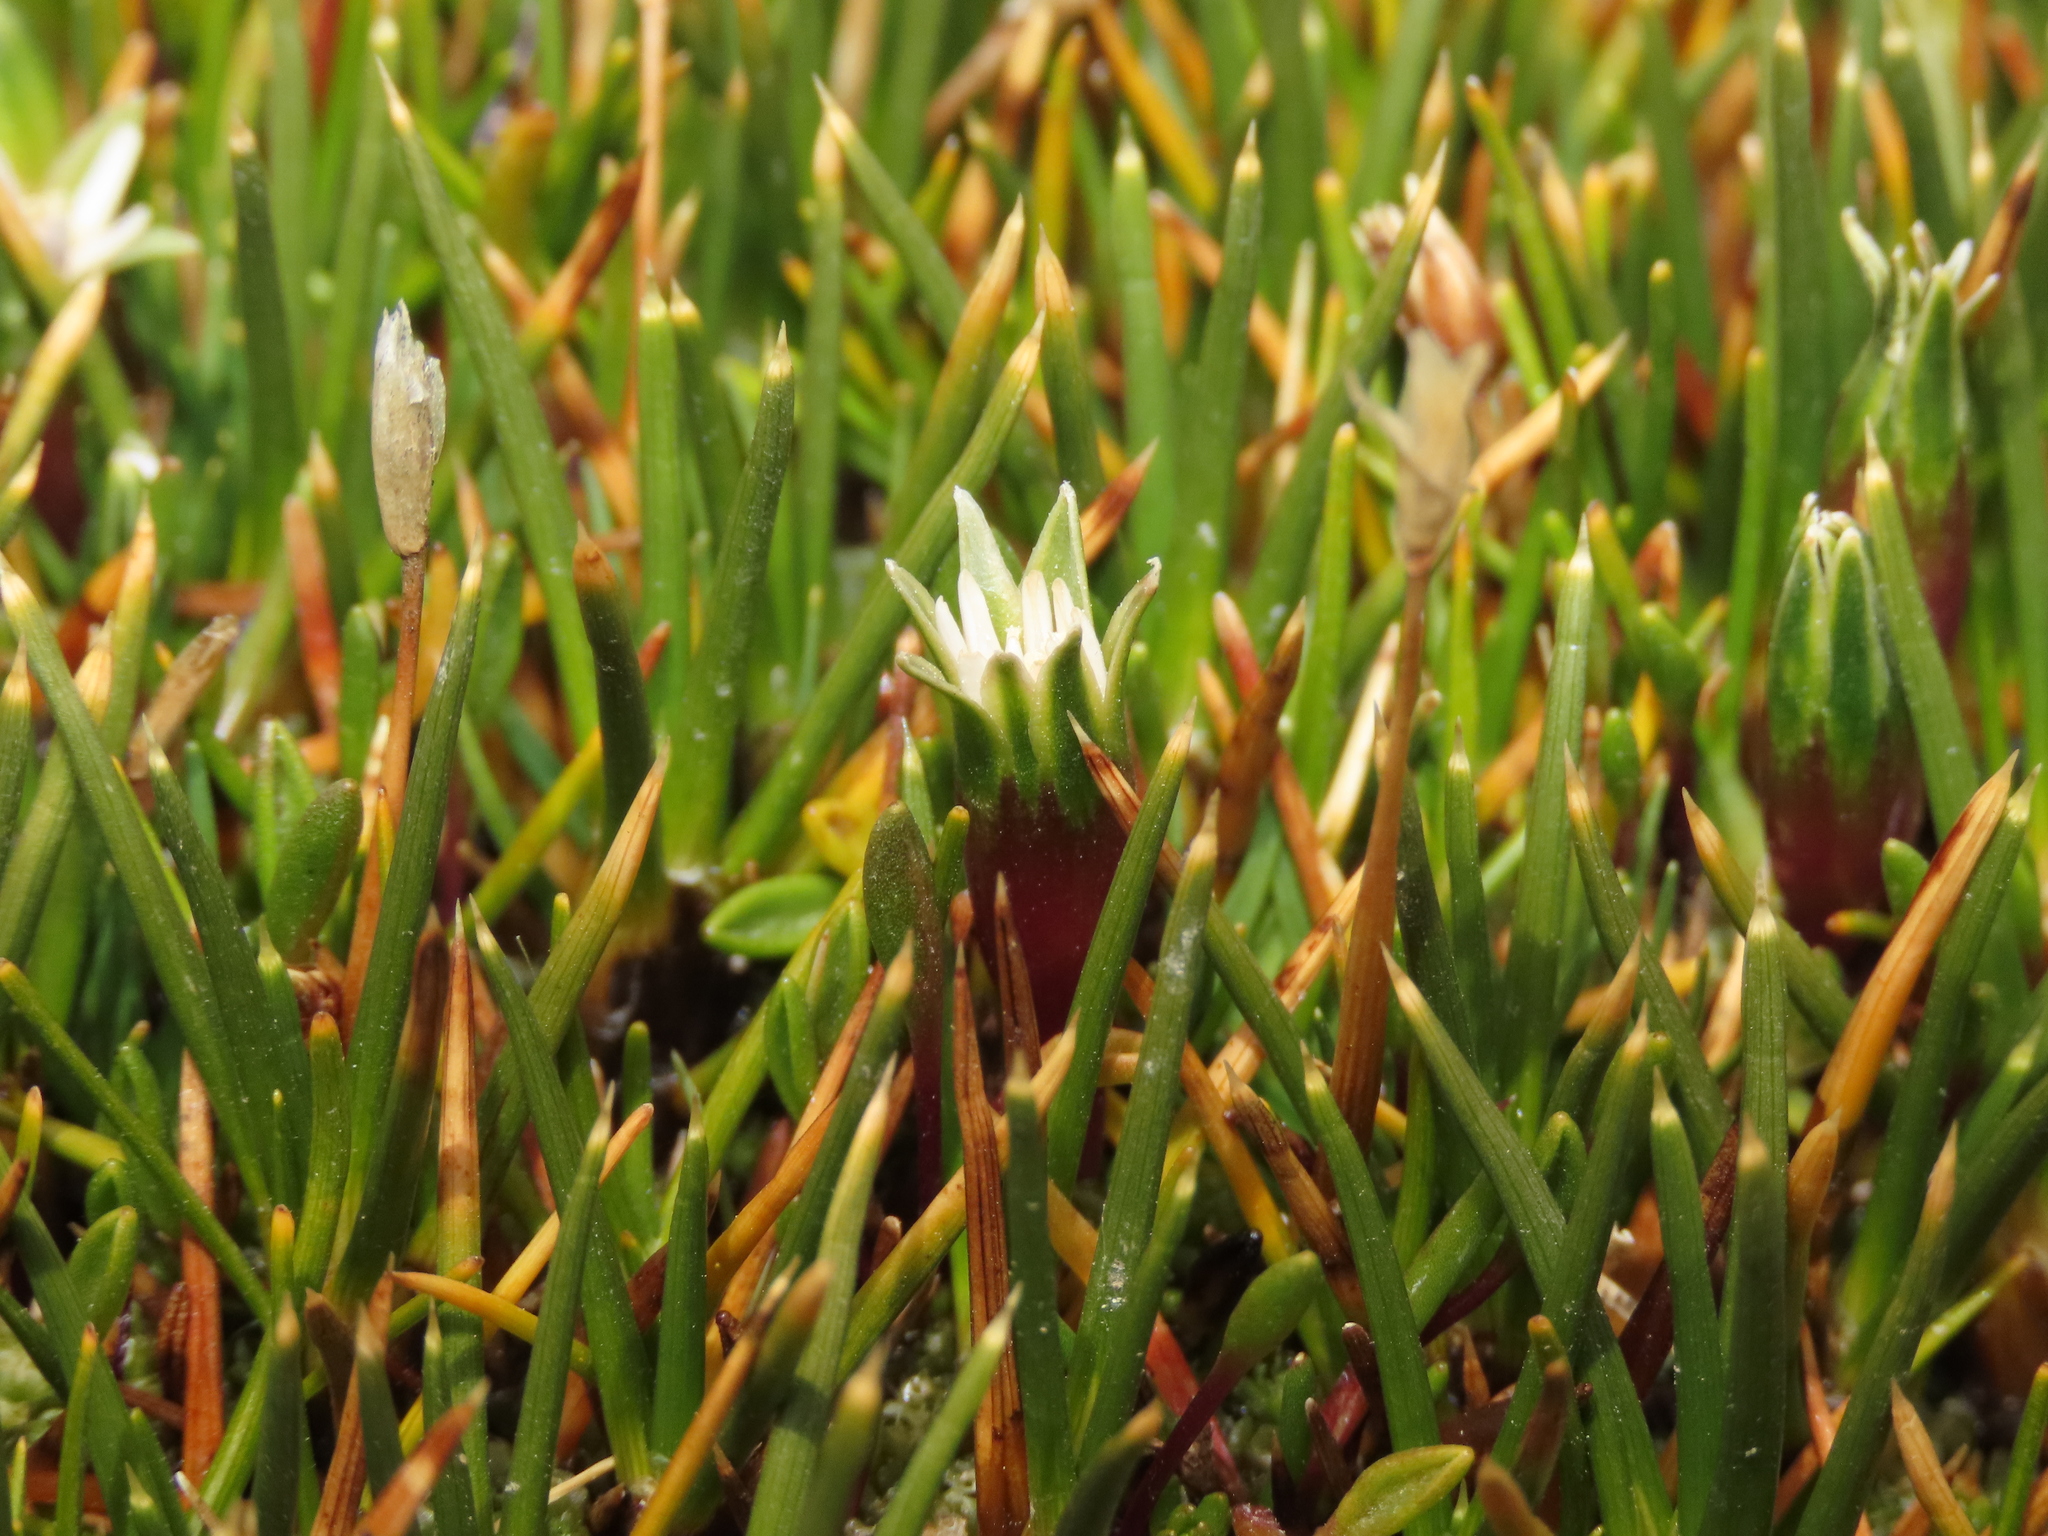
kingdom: Plantae
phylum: Tracheophyta
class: Magnoliopsida
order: Asterales
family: Asteraceae
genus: Rockhausenia
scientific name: Rockhausenia spathulata
